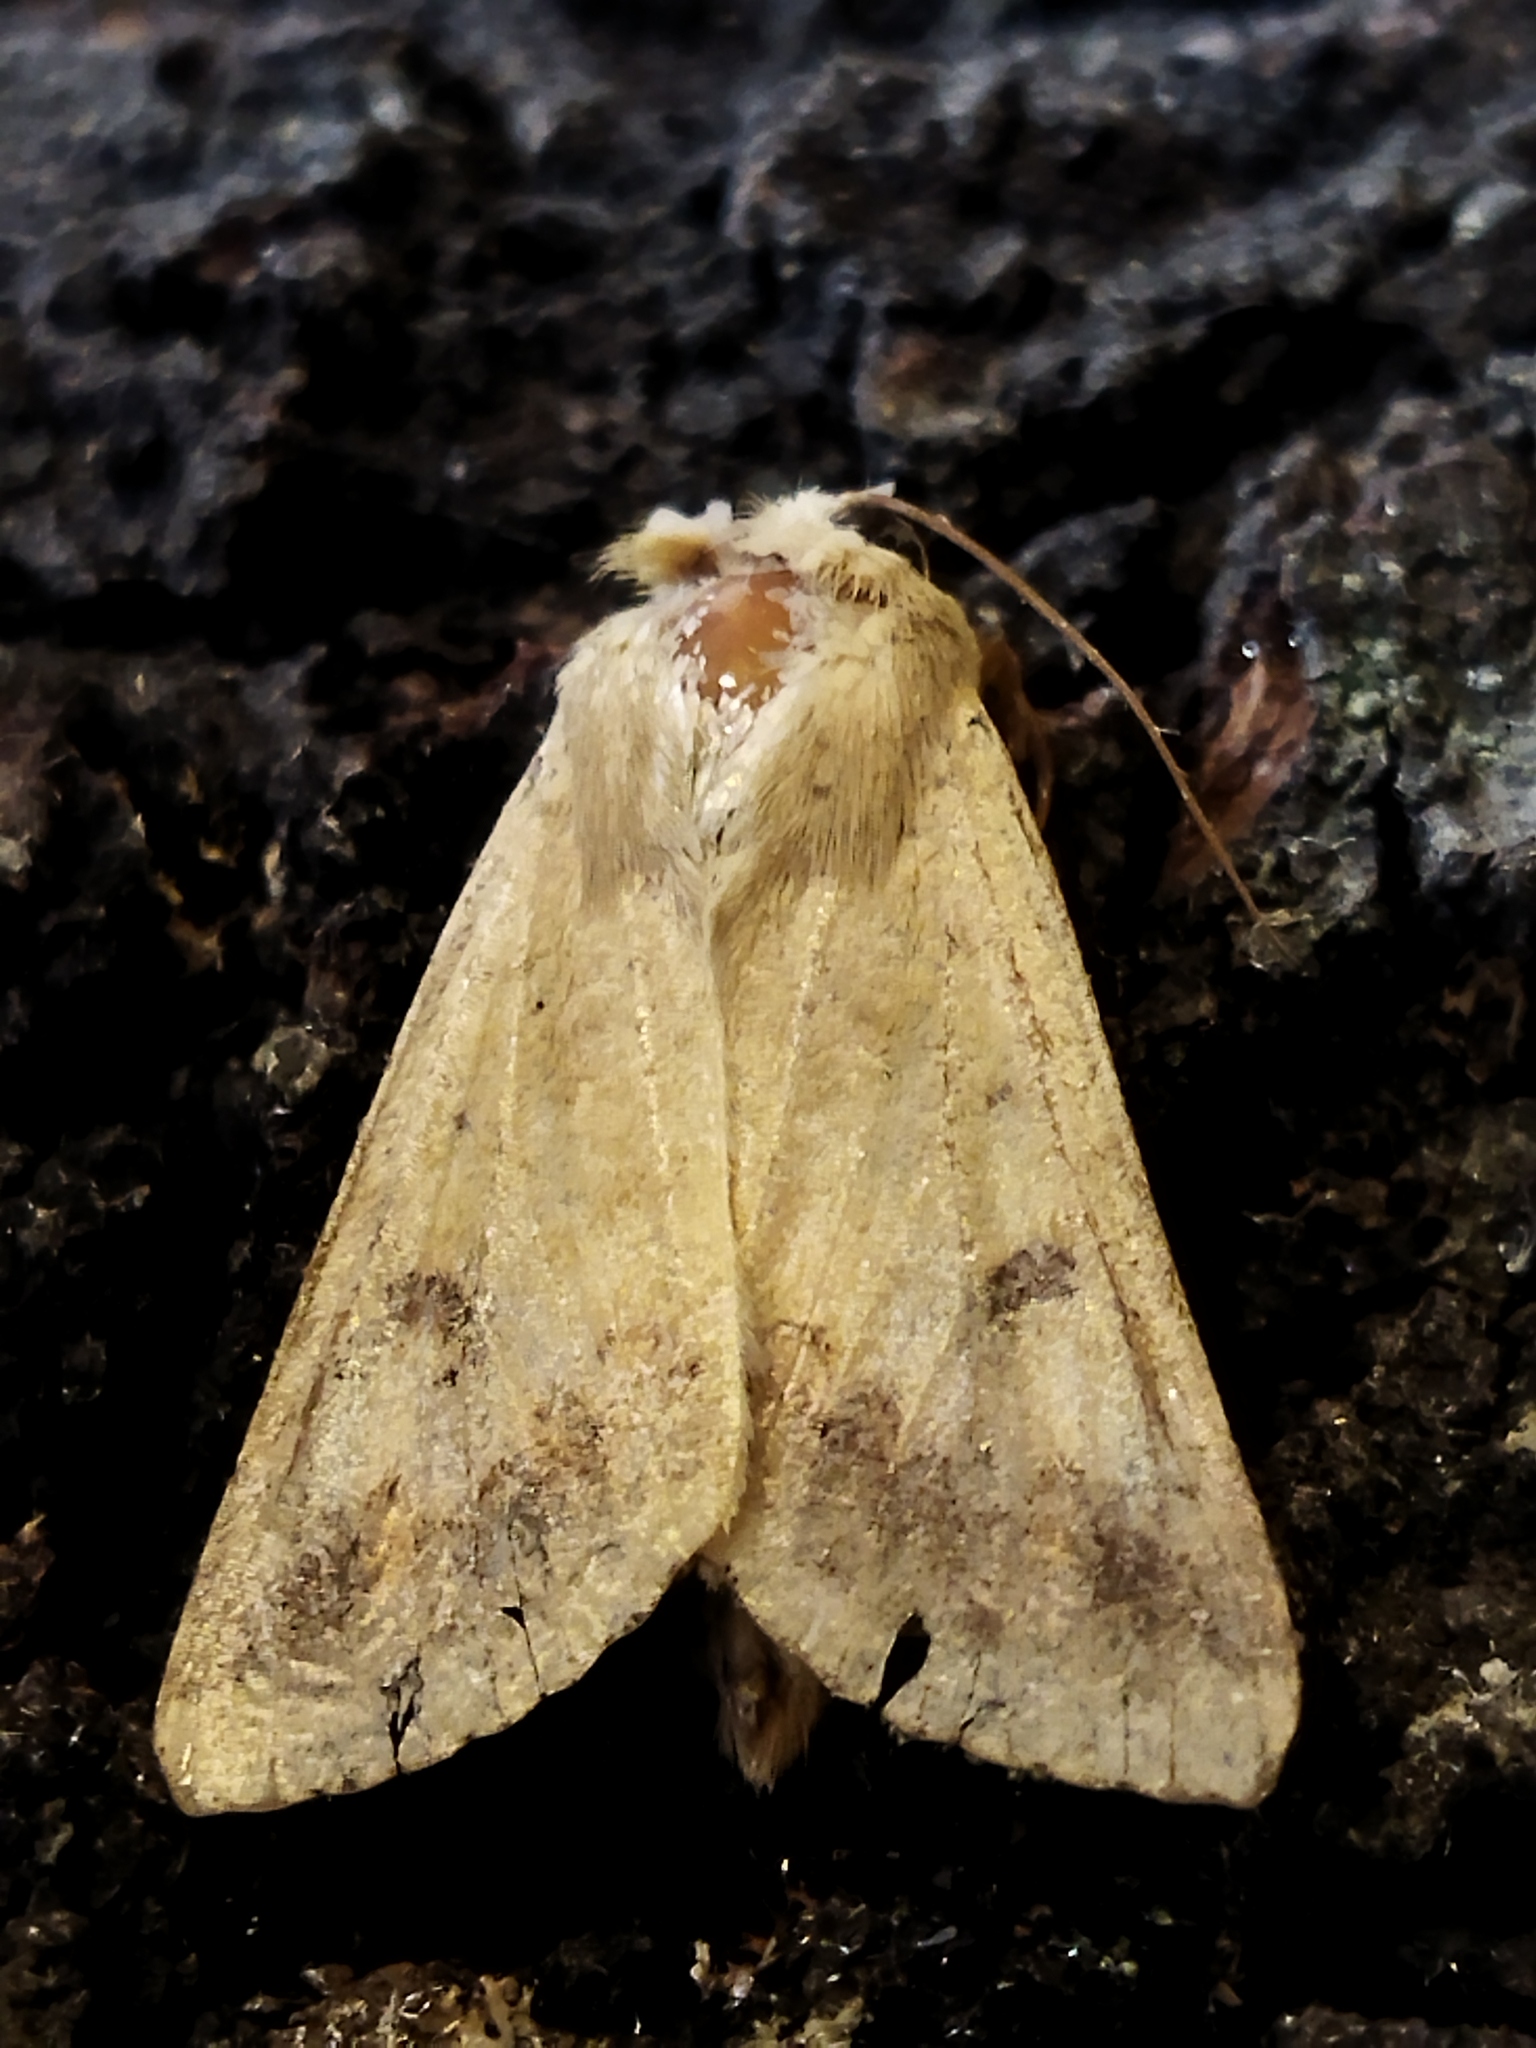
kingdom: Animalia
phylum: Arthropoda
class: Insecta
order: Lepidoptera
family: Noctuidae
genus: Helicoverpa
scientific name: Helicoverpa armigera
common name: Cotton bollworm
